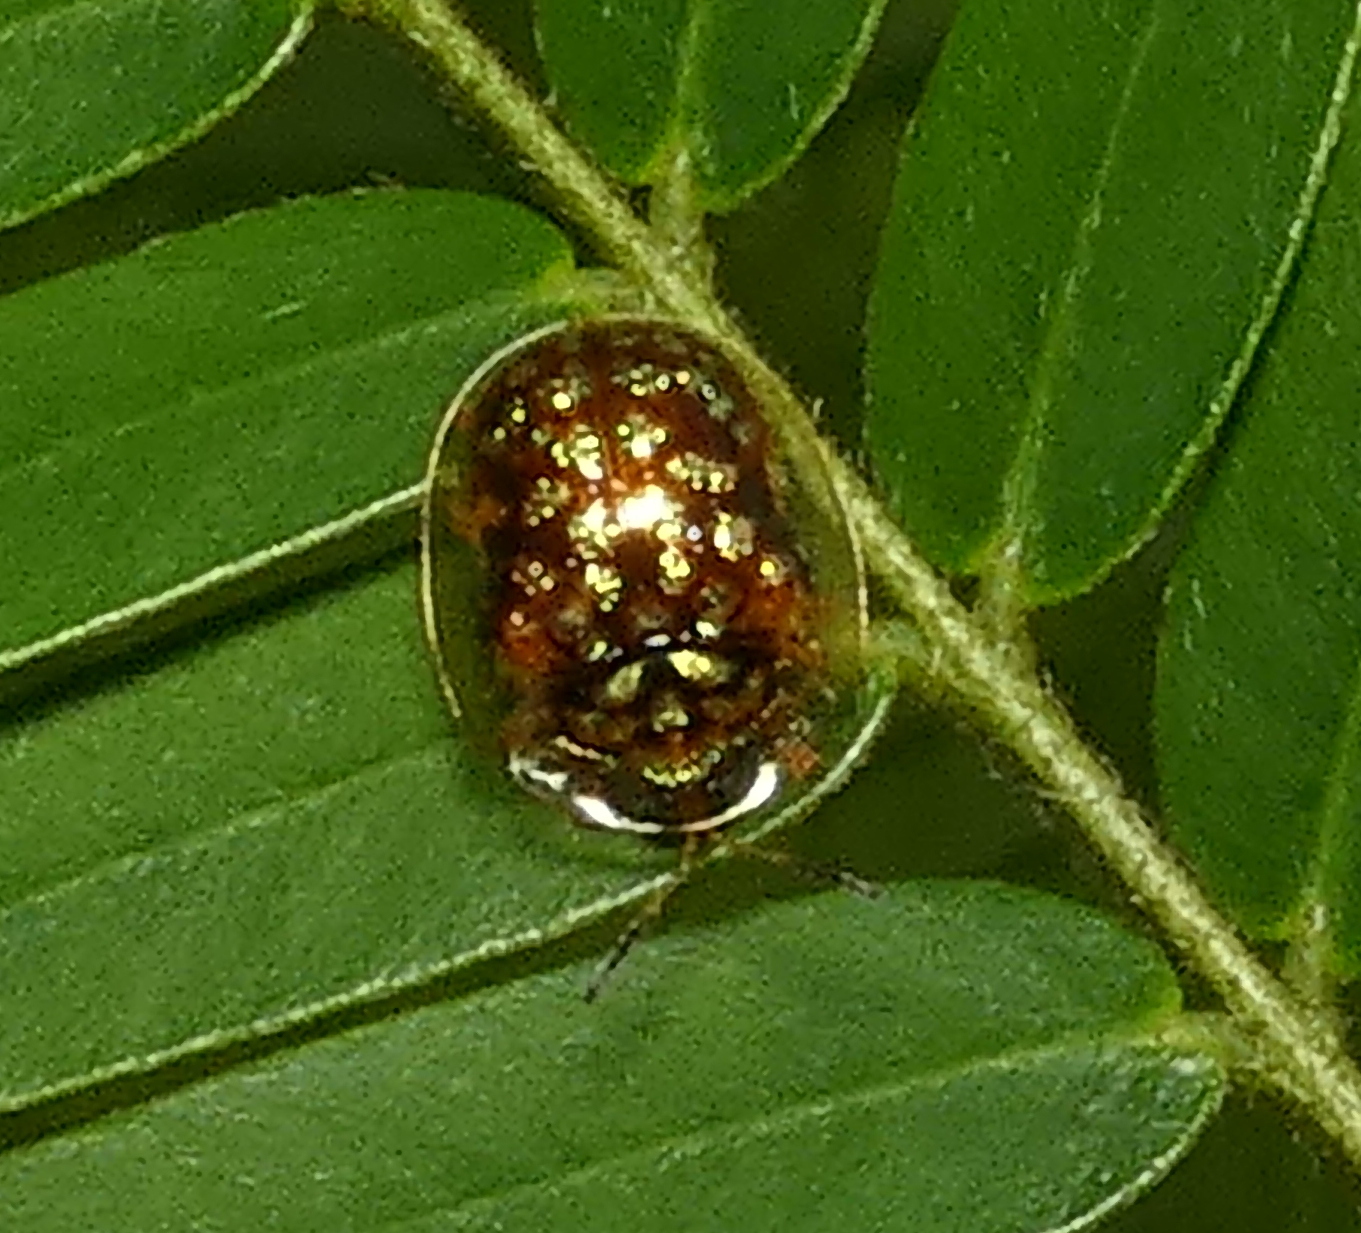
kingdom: Animalia
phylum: Arthropoda
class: Insecta
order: Coleoptera
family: Chrysomelidae
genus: Cteisella
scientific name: Cteisella guttigera
